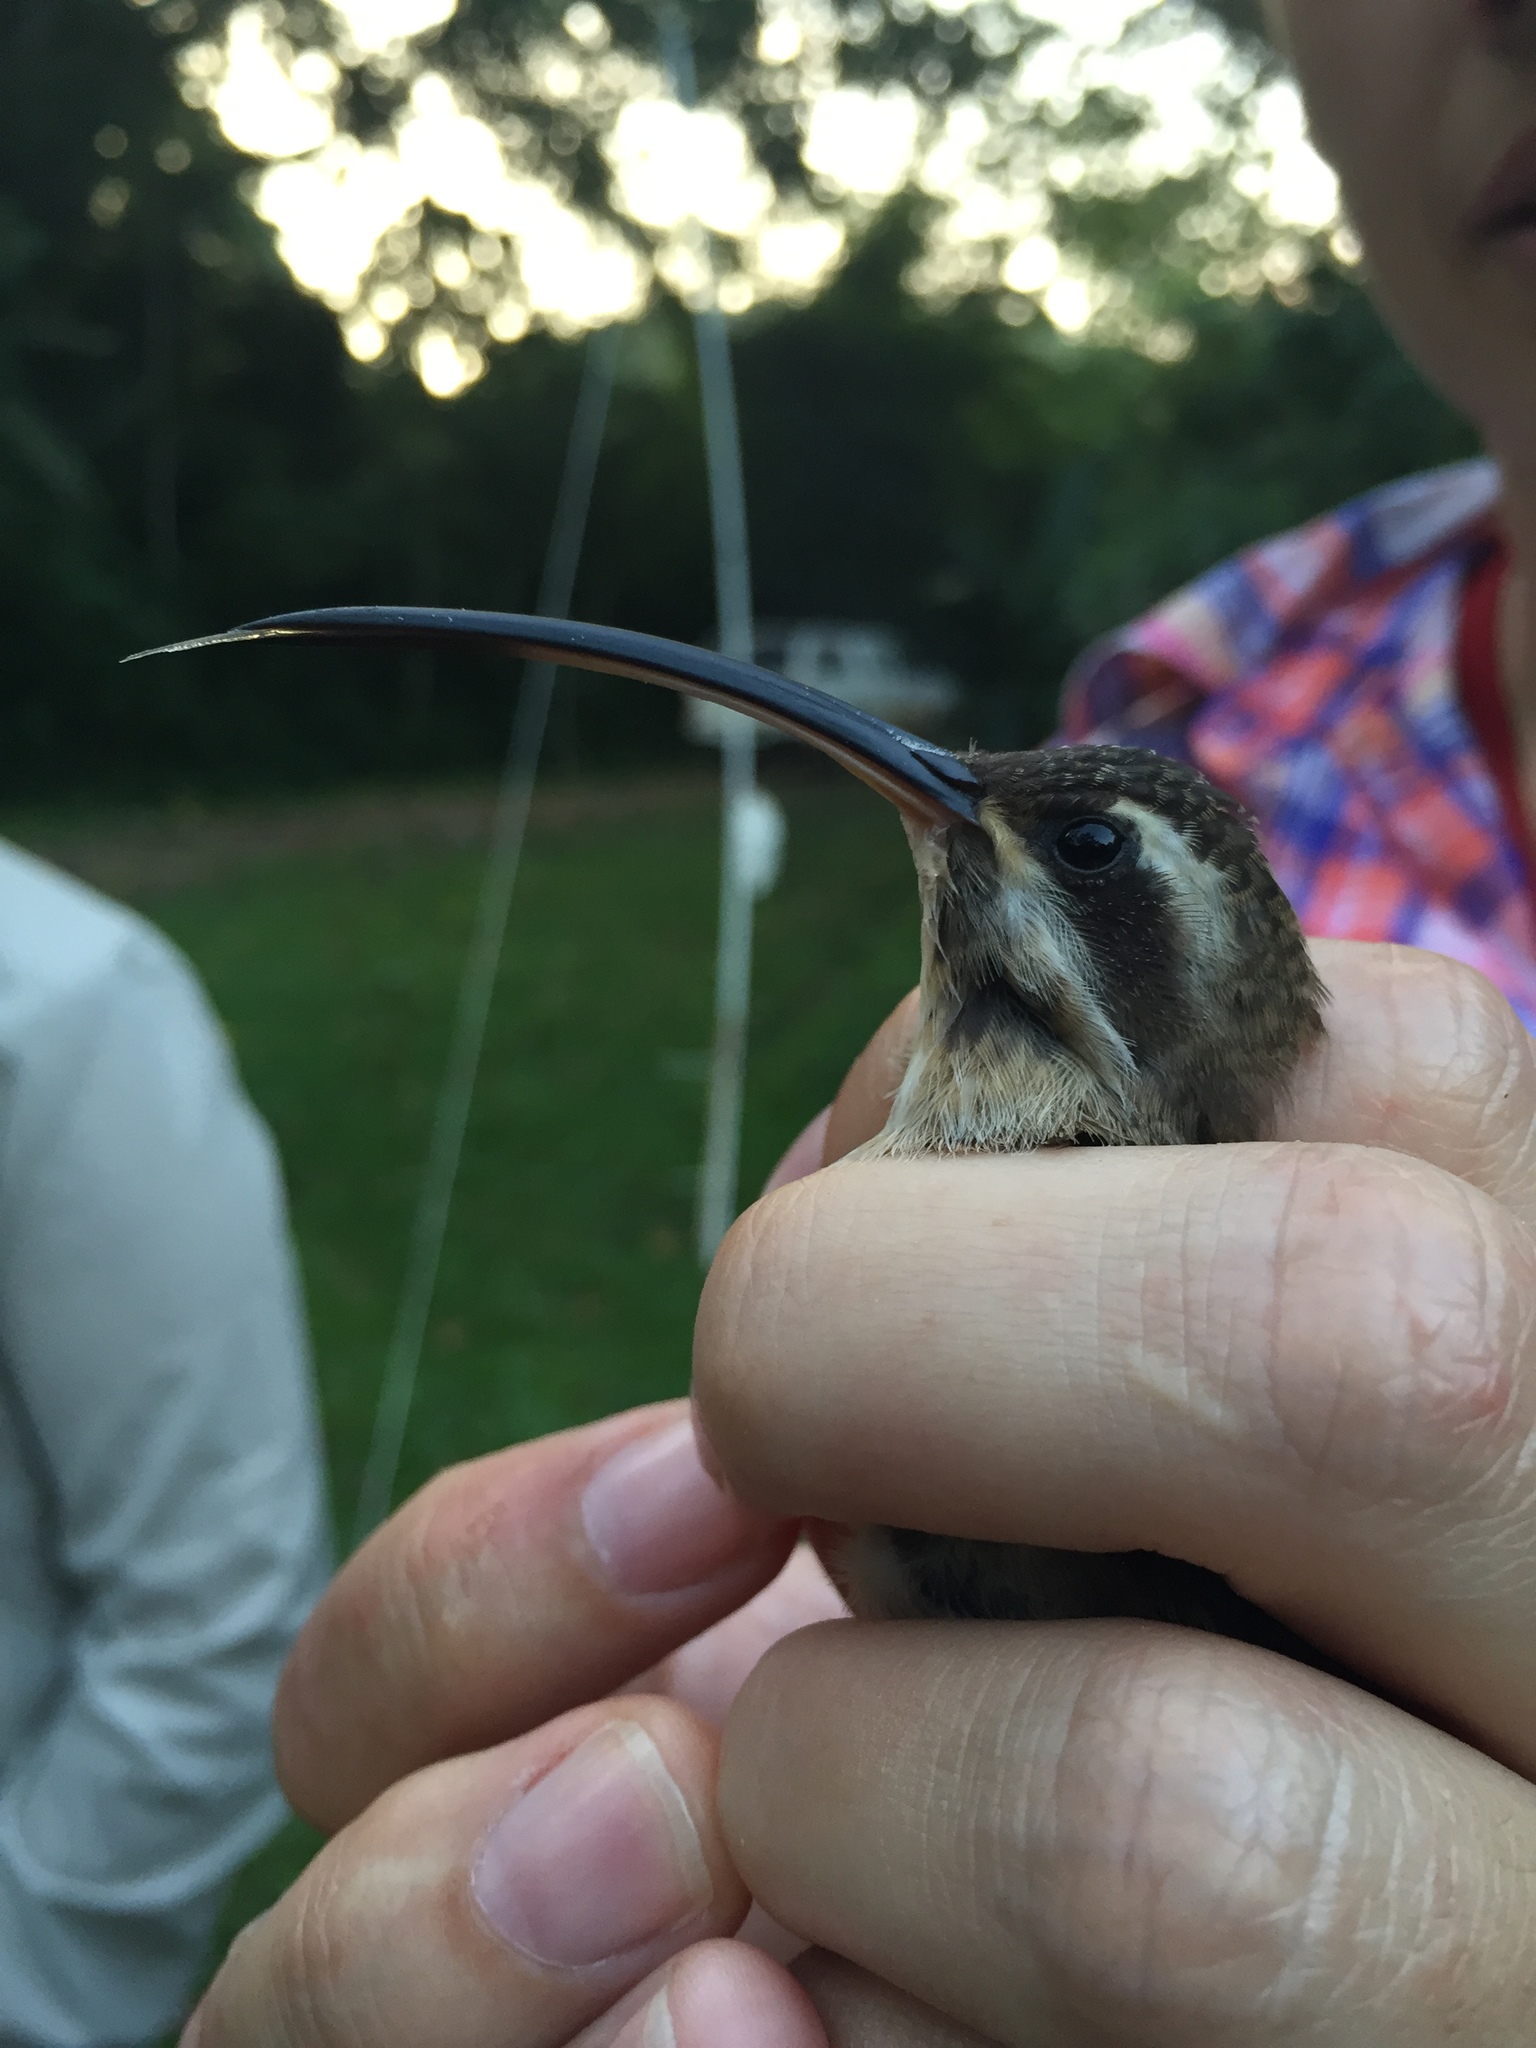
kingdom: Animalia
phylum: Chordata
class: Aves
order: Apodiformes
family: Trochilidae
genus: Phaethornis
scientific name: Phaethornis longirostris
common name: Long-billed hermit
